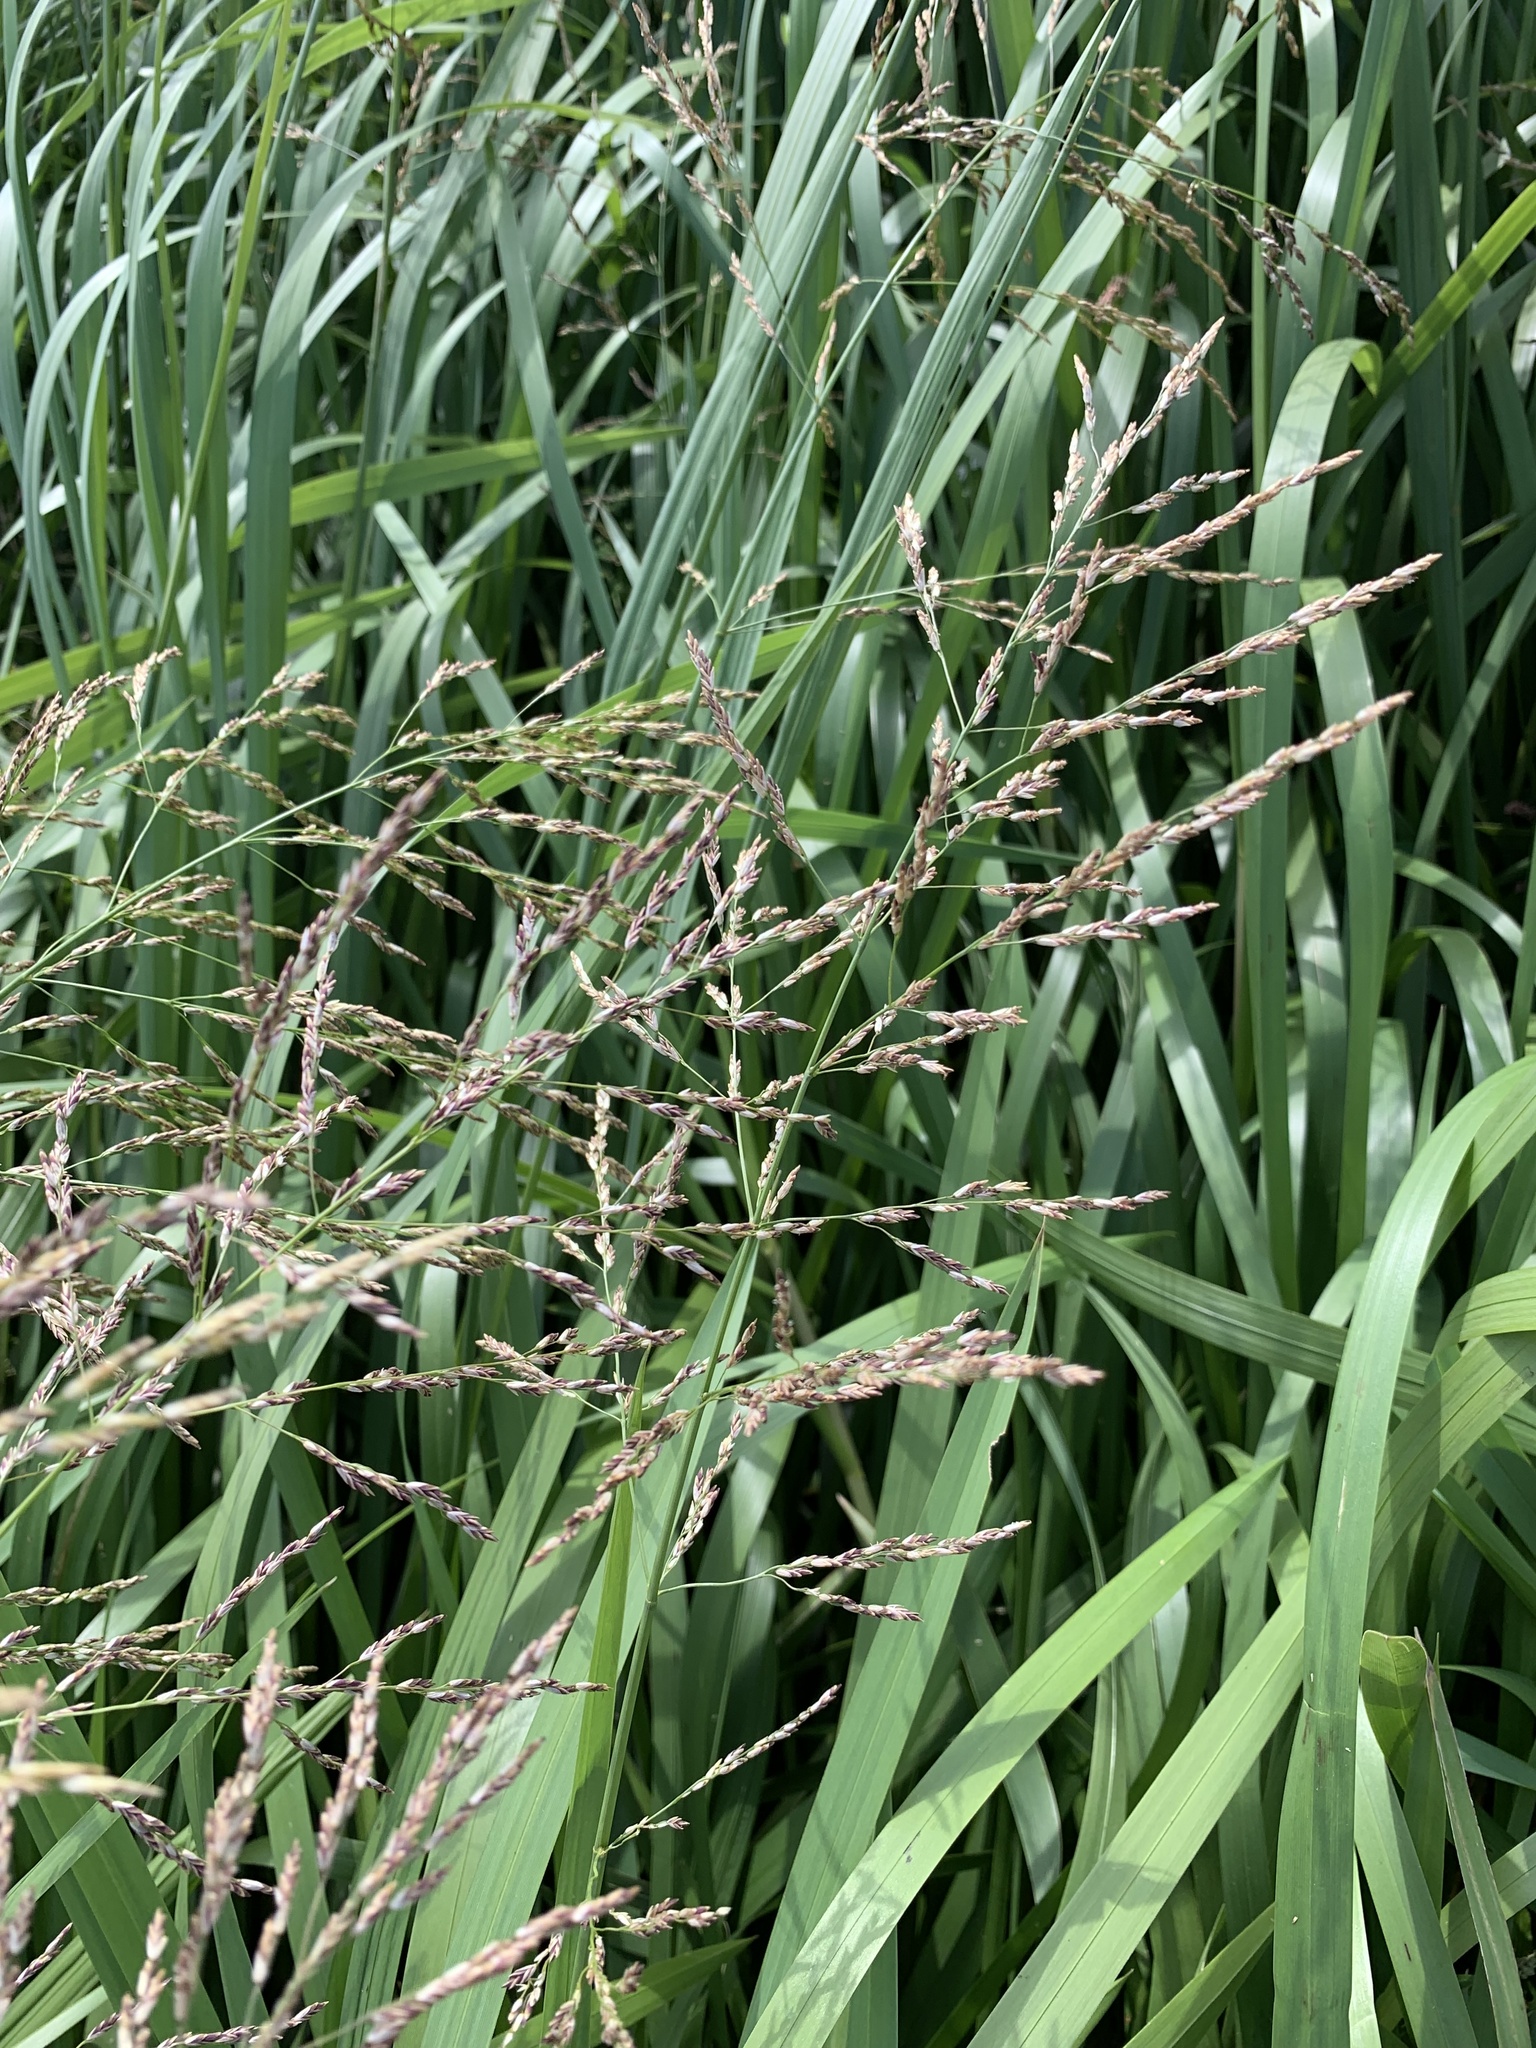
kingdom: Plantae
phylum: Tracheophyta
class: Liliopsida
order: Poales
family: Poaceae
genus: Glyceria
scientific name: Glyceria maxima
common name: Reed mannagrass
